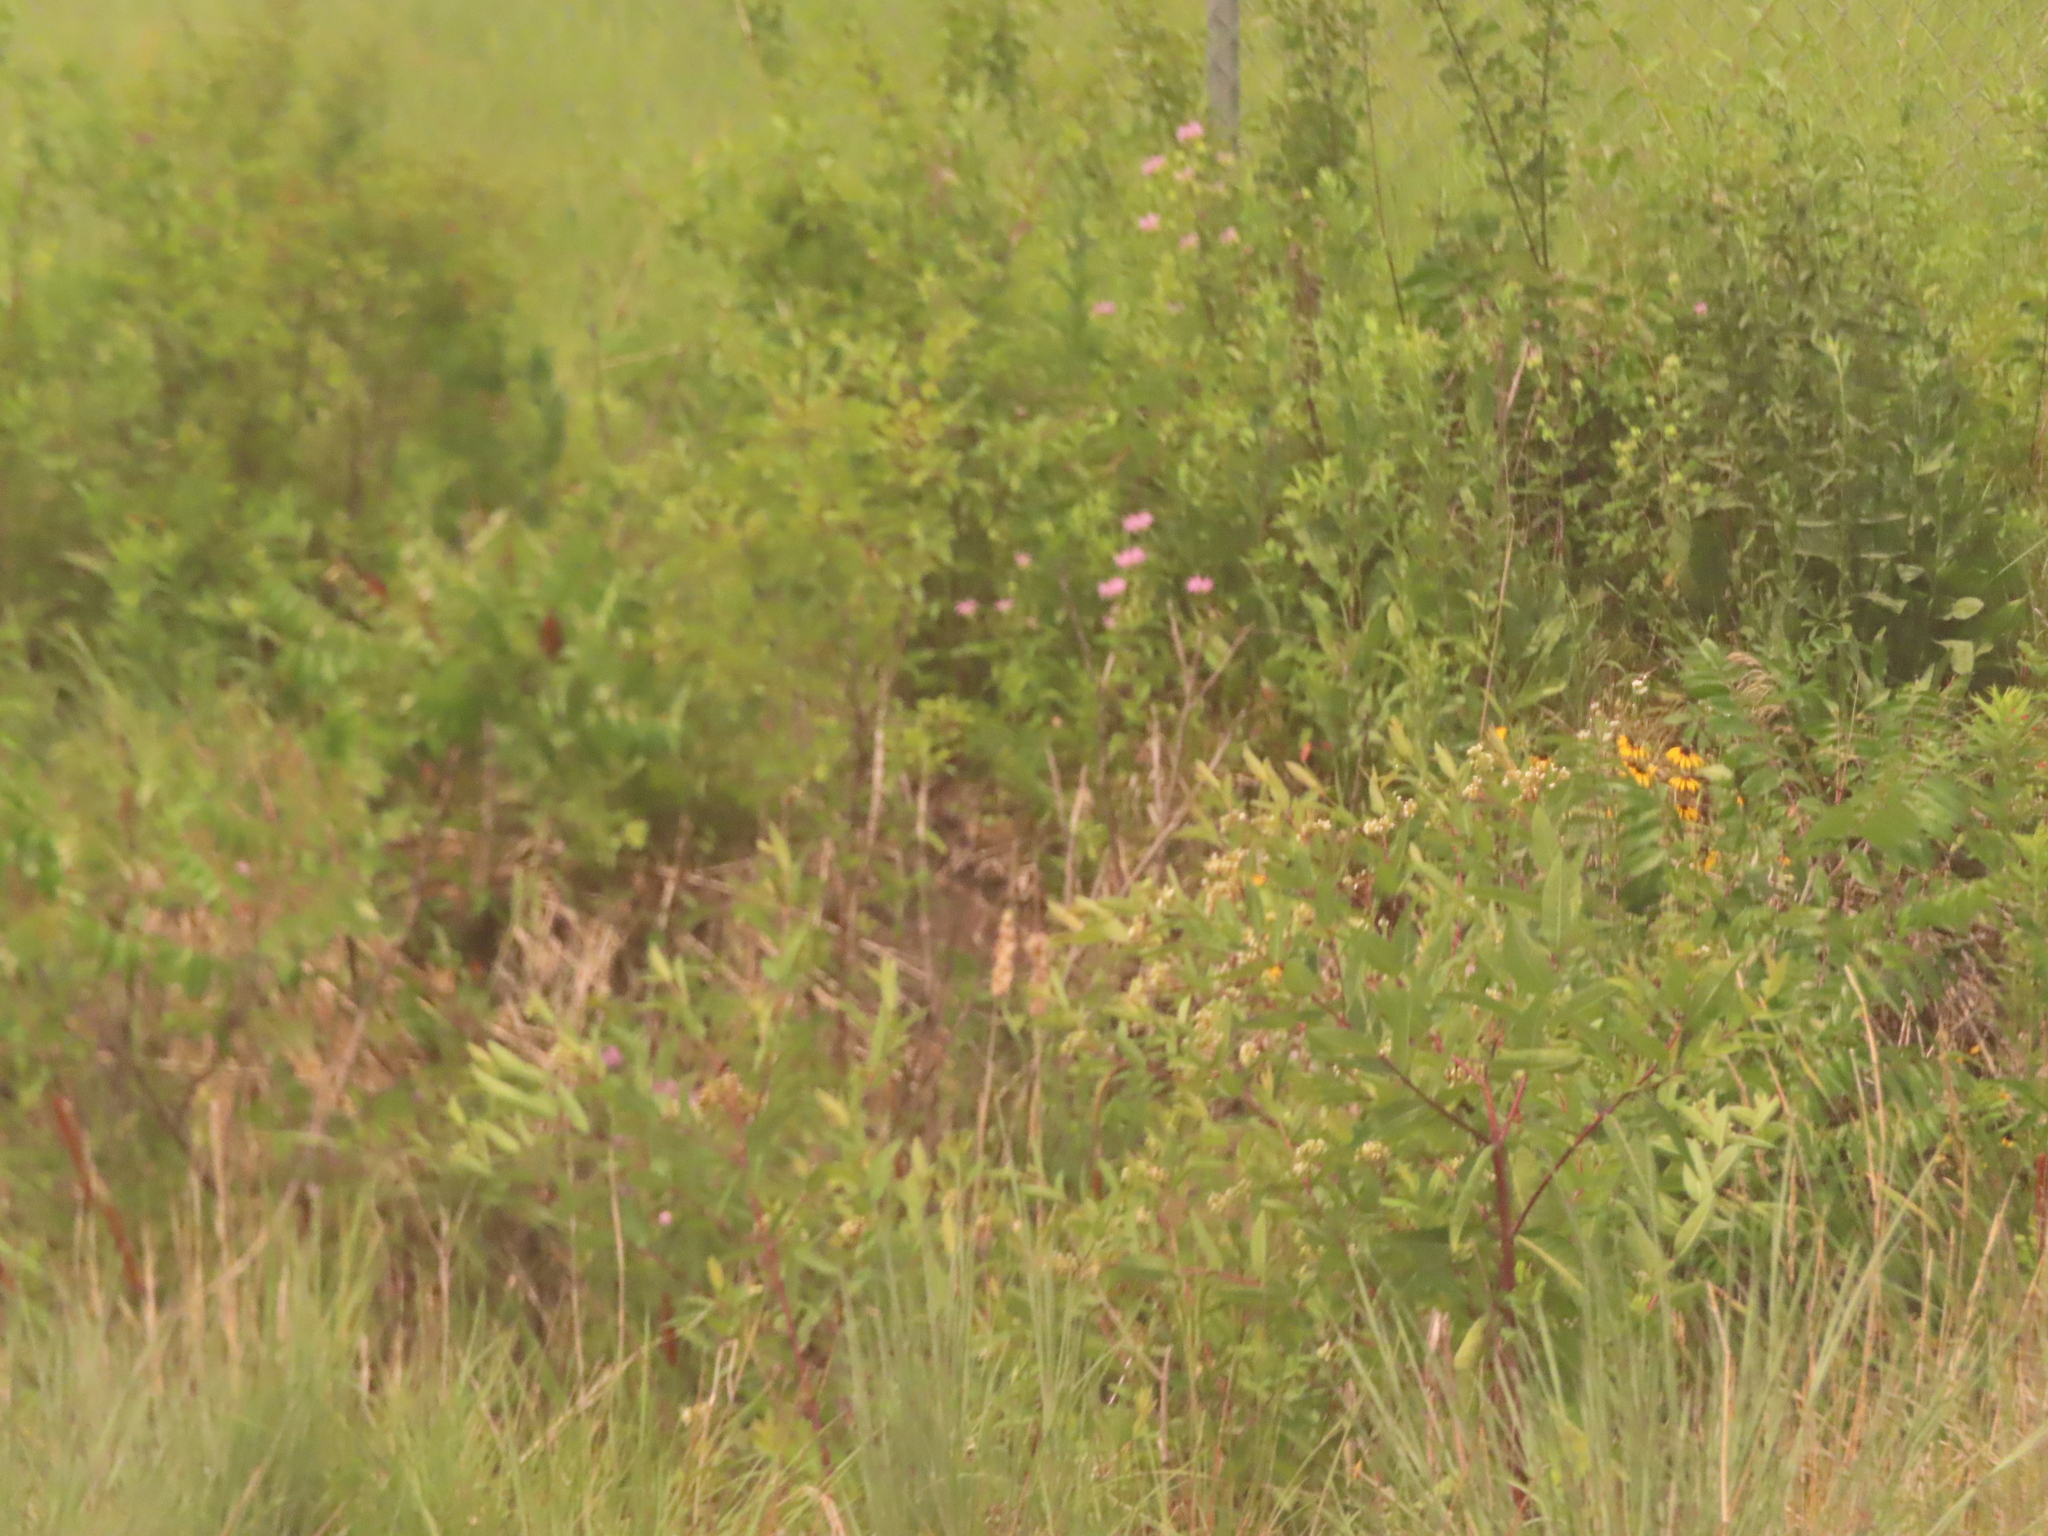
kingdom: Plantae
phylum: Tracheophyta
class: Magnoliopsida
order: Gentianales
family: Apocynaceae
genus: Apocynum
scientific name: Apocynum cannabinum
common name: Hemp dogbane
